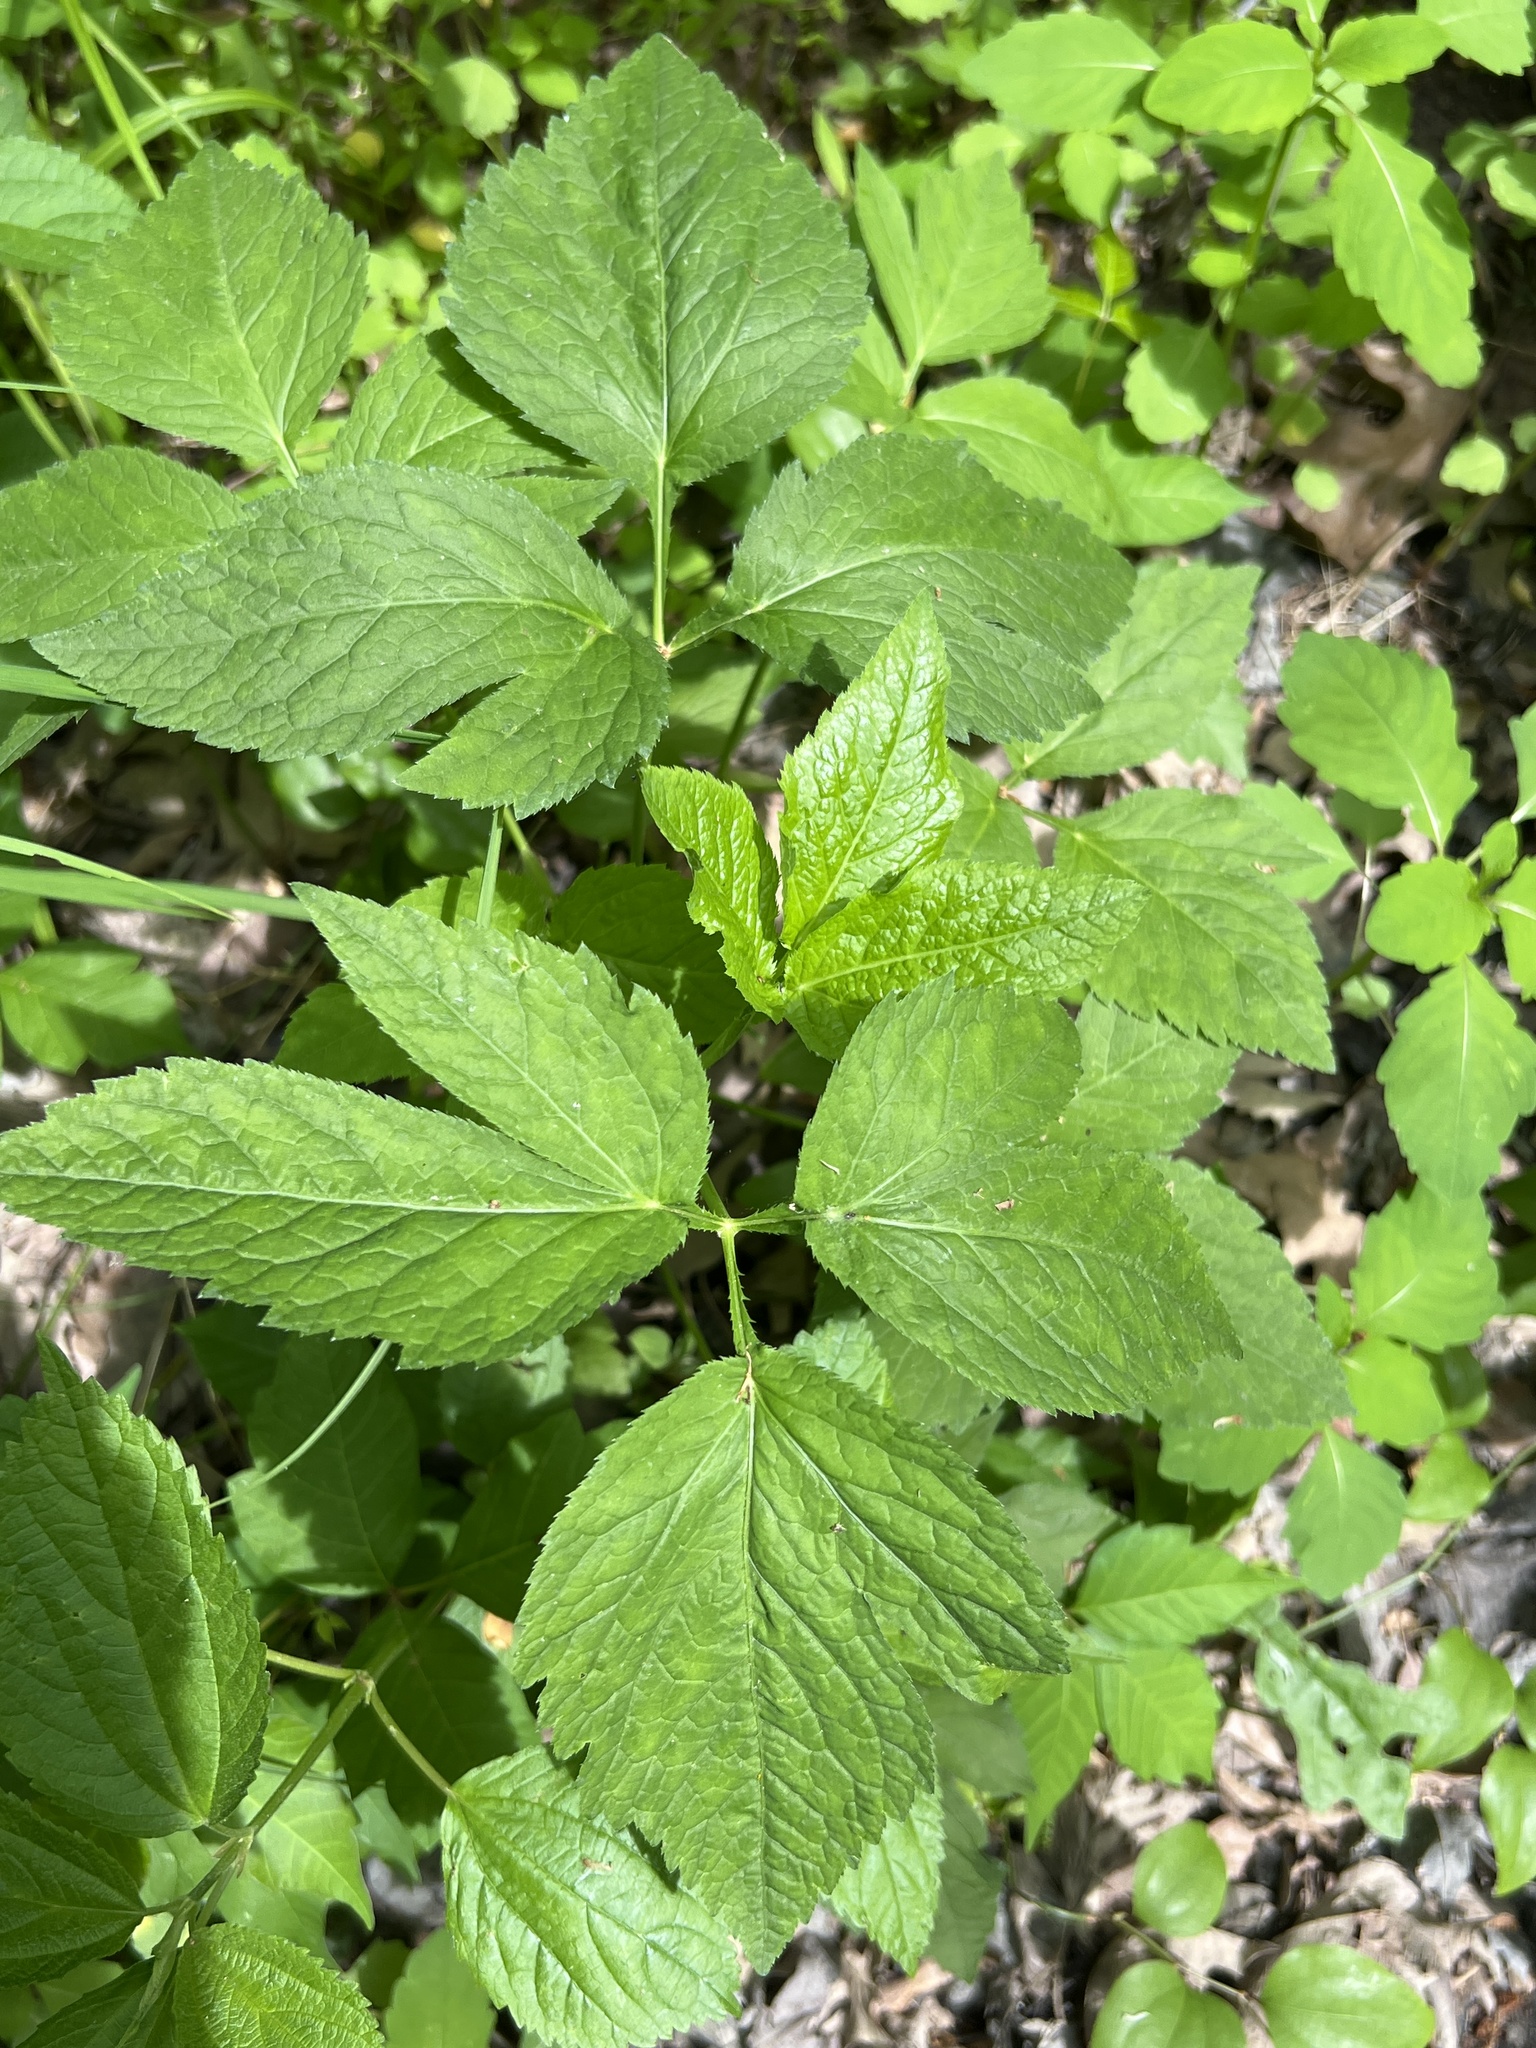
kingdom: Plantae
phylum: Tracheophyta
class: Magnoliopsida
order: Apiales
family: Apiaceae
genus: Cryptotaenia
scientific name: Cryptotaenia canadensis
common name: Honewort
